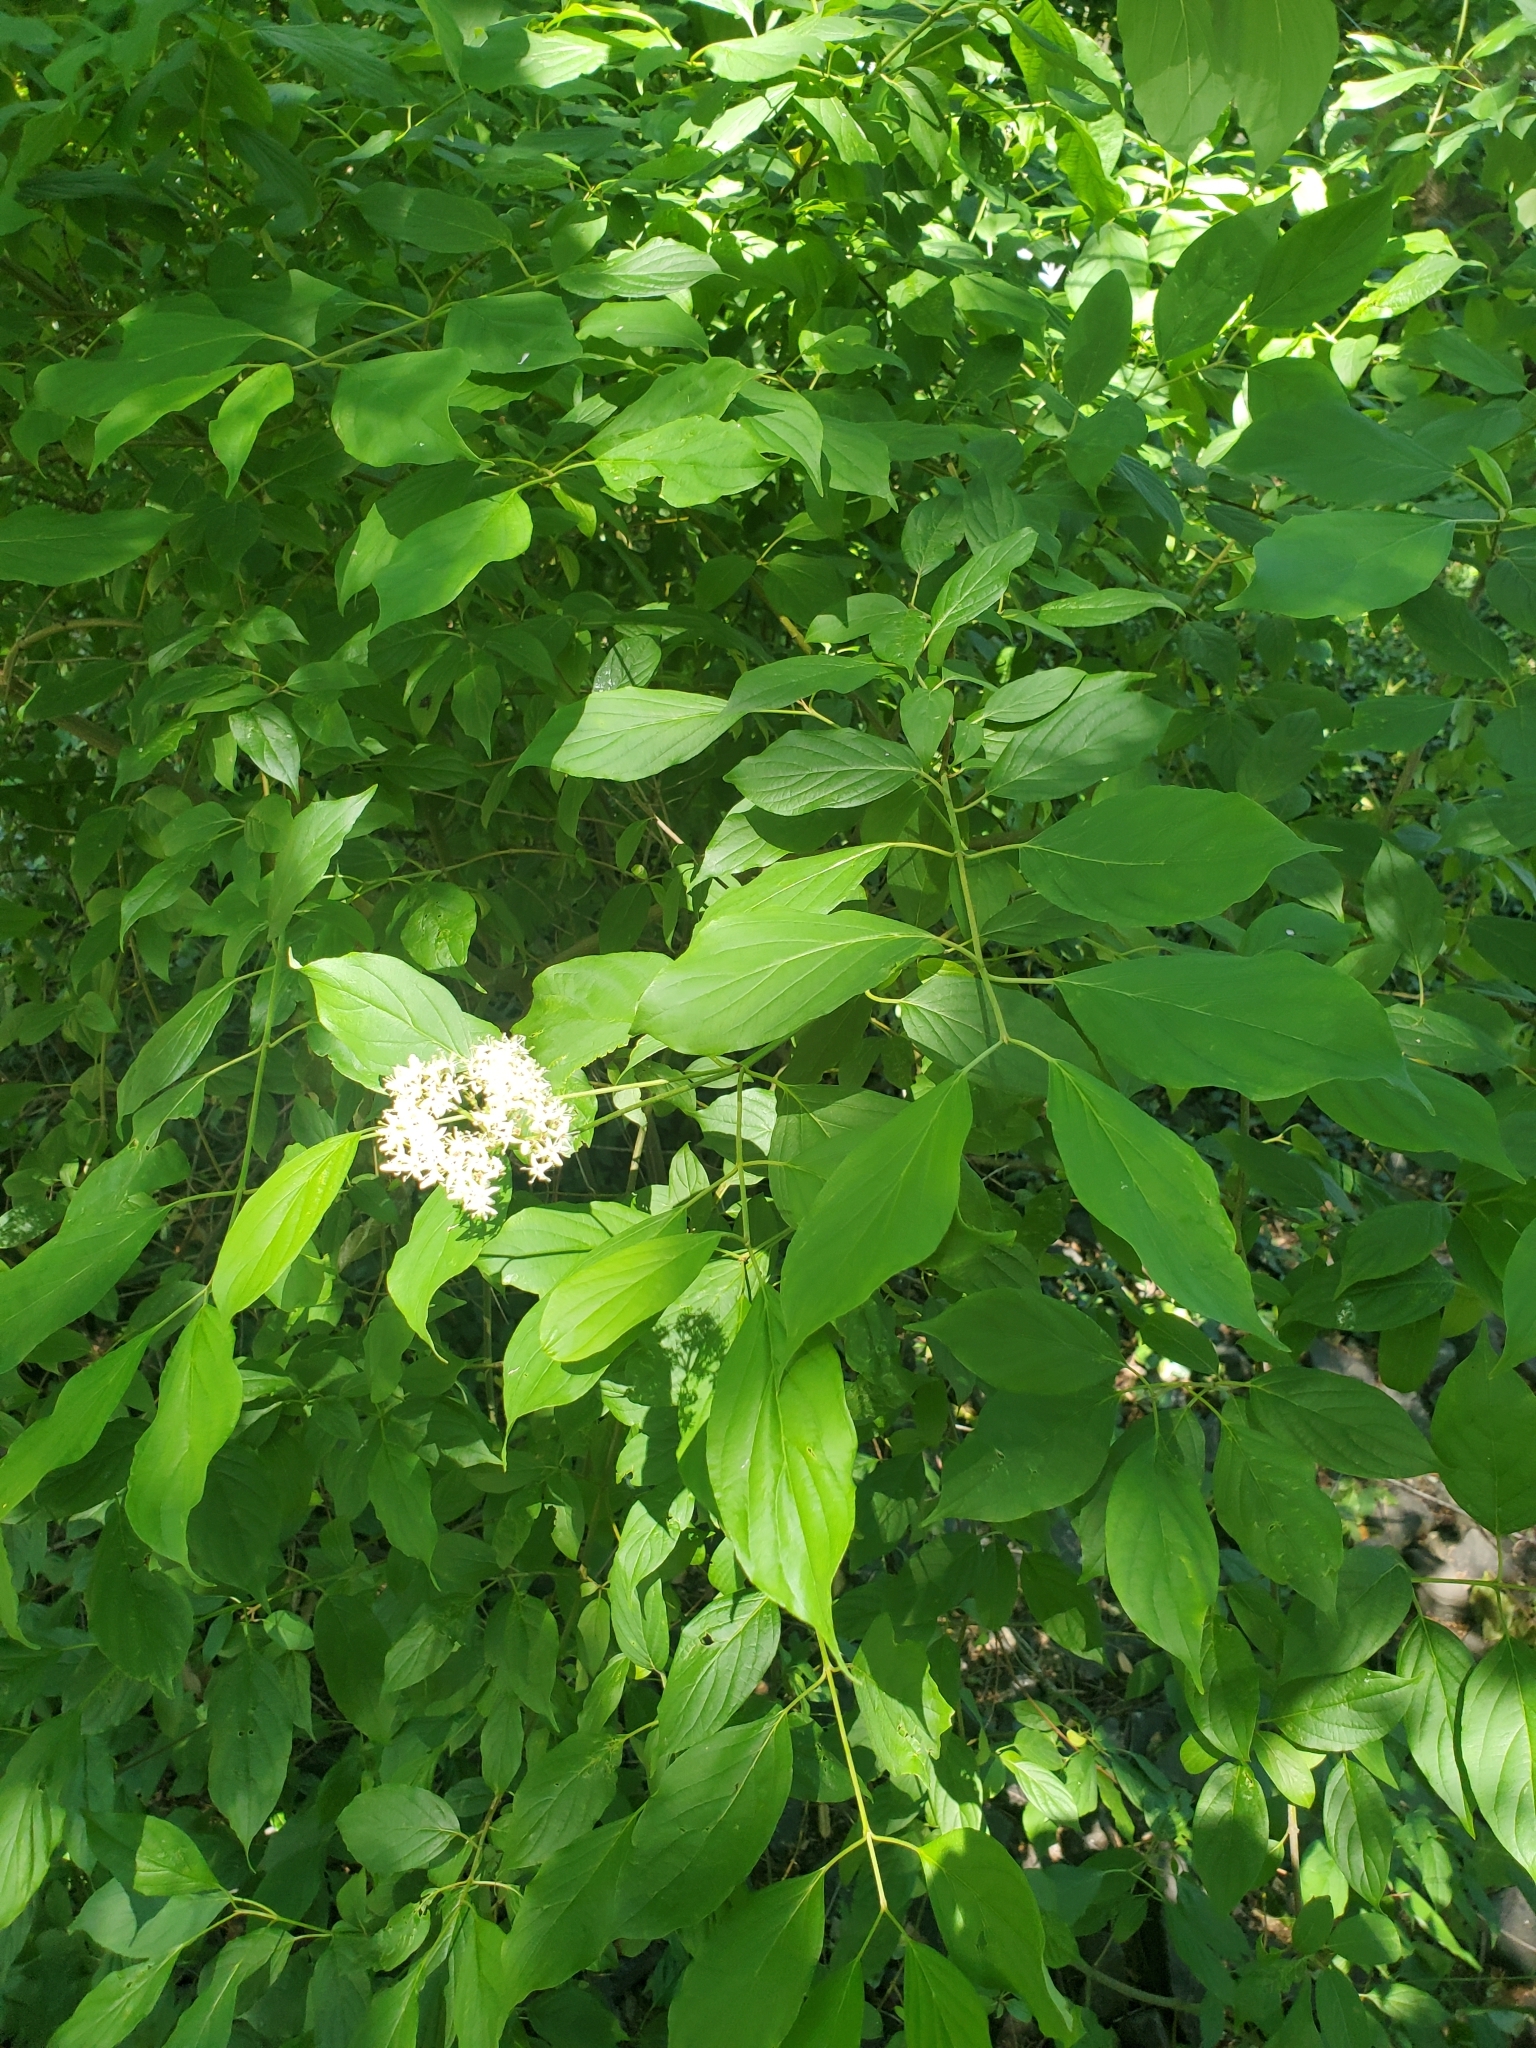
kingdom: Plantae
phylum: Tracheophyta
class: Magnoliopsida
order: Cornales
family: Cornaceae
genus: Cornus
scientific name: Cornus amomum
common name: Silky dogwood
